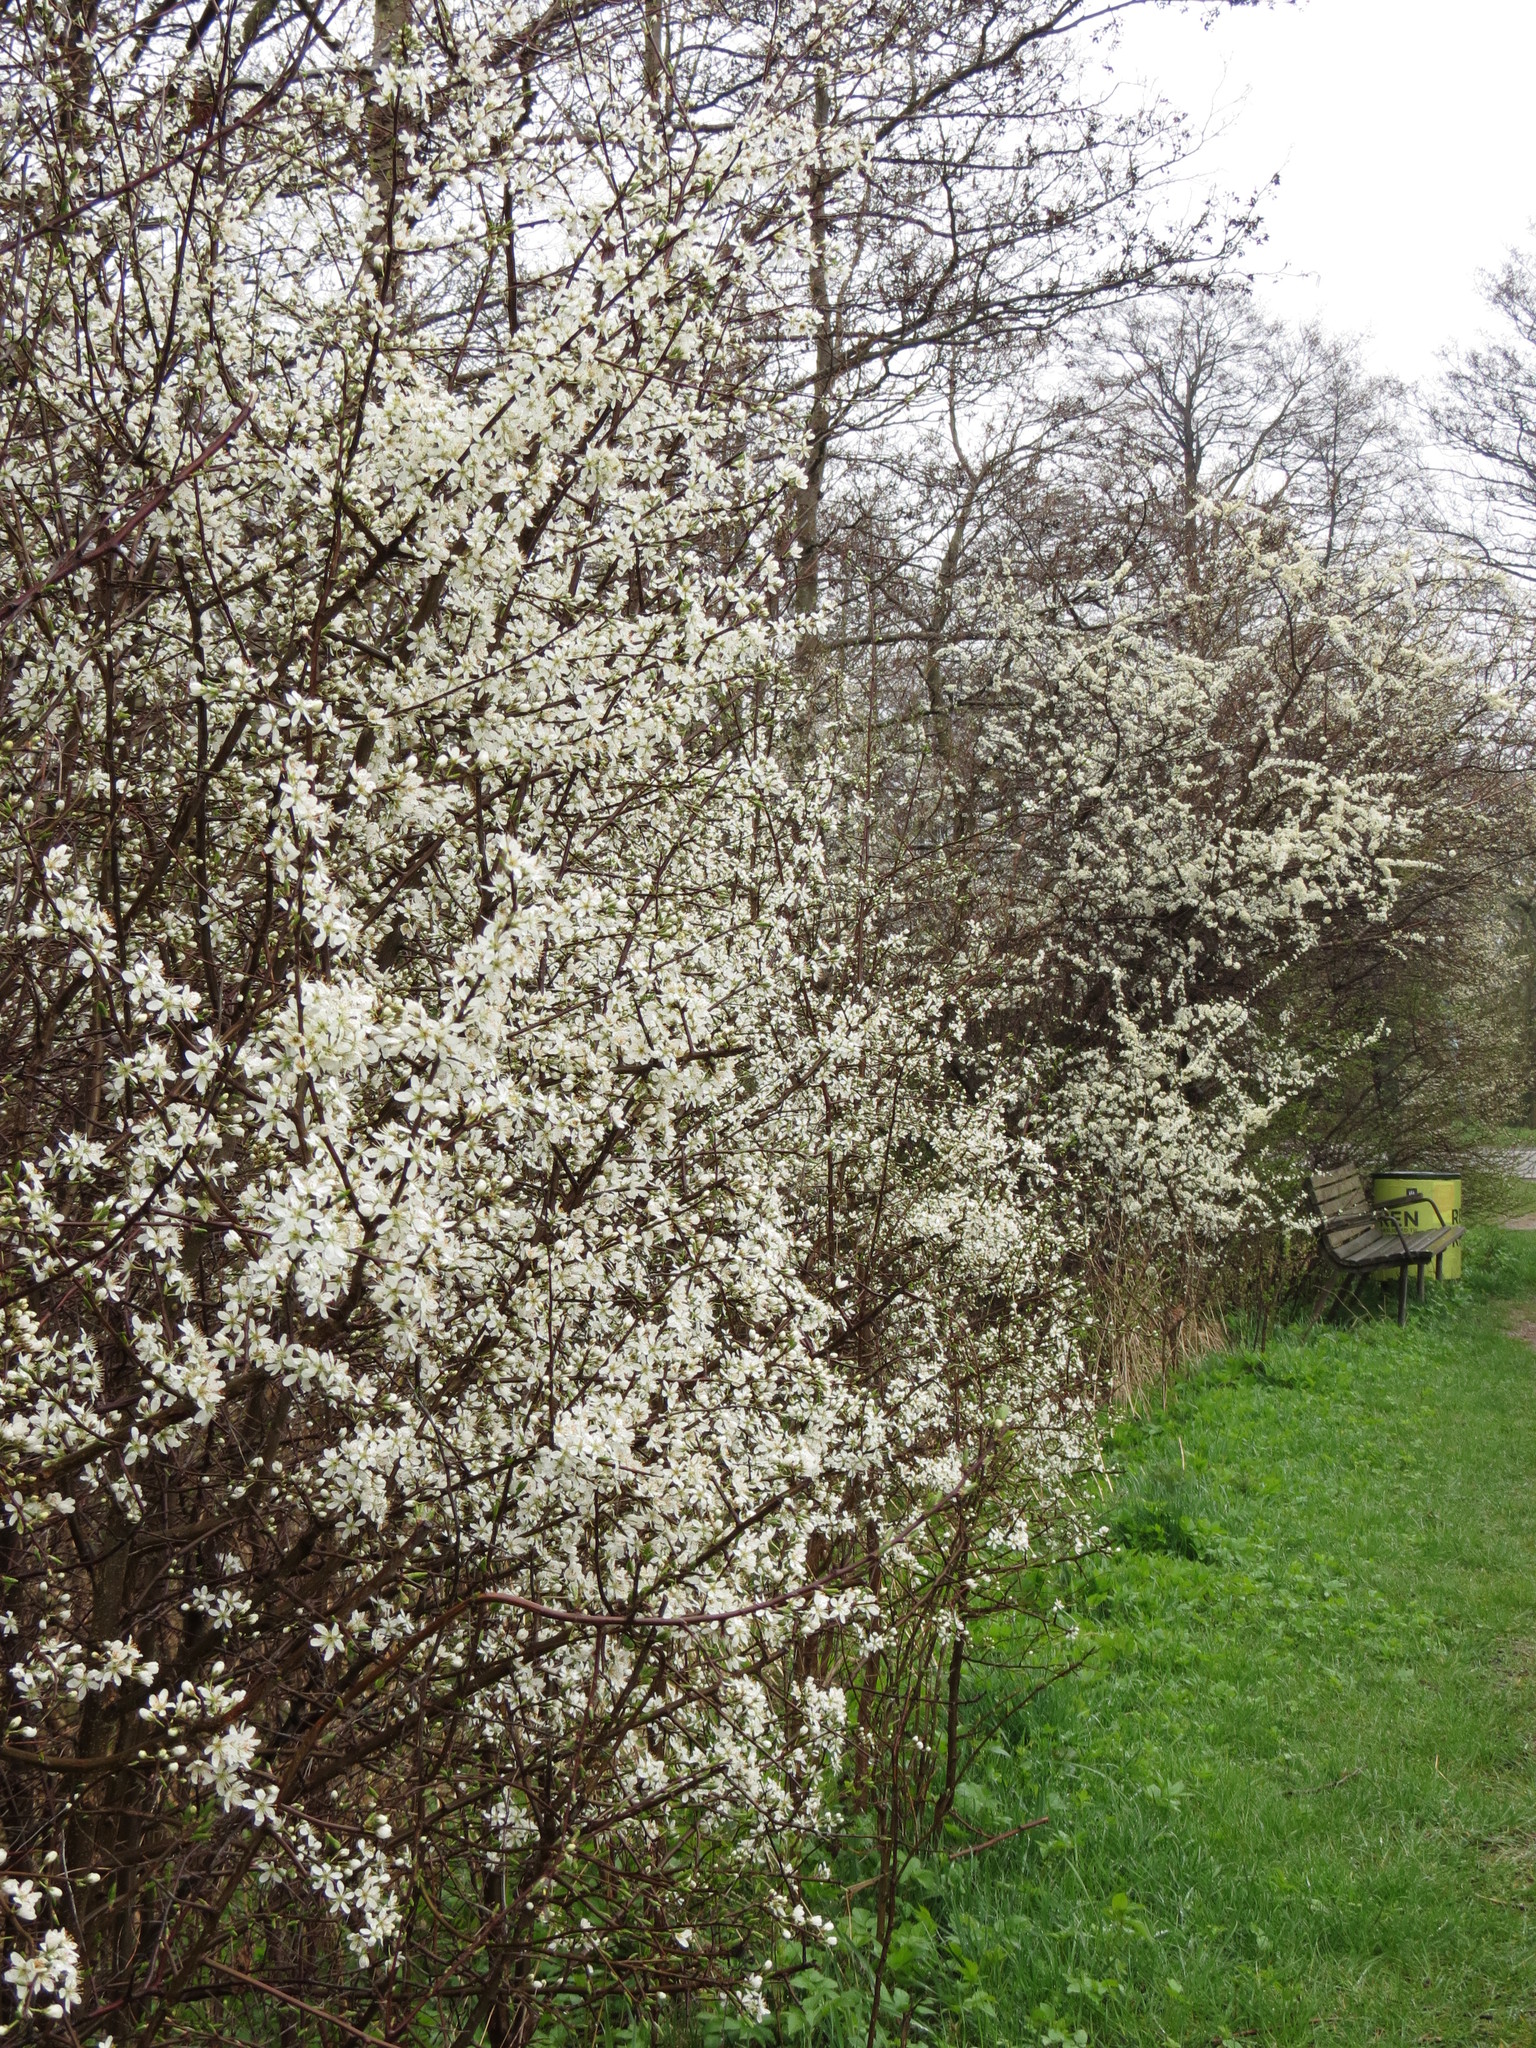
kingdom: Plantae
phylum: Tracheophyta
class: Magnoliopsida
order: Rosales
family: Rosaceae
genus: Prunus
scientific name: Prunus spinosa
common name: Blackthorn
